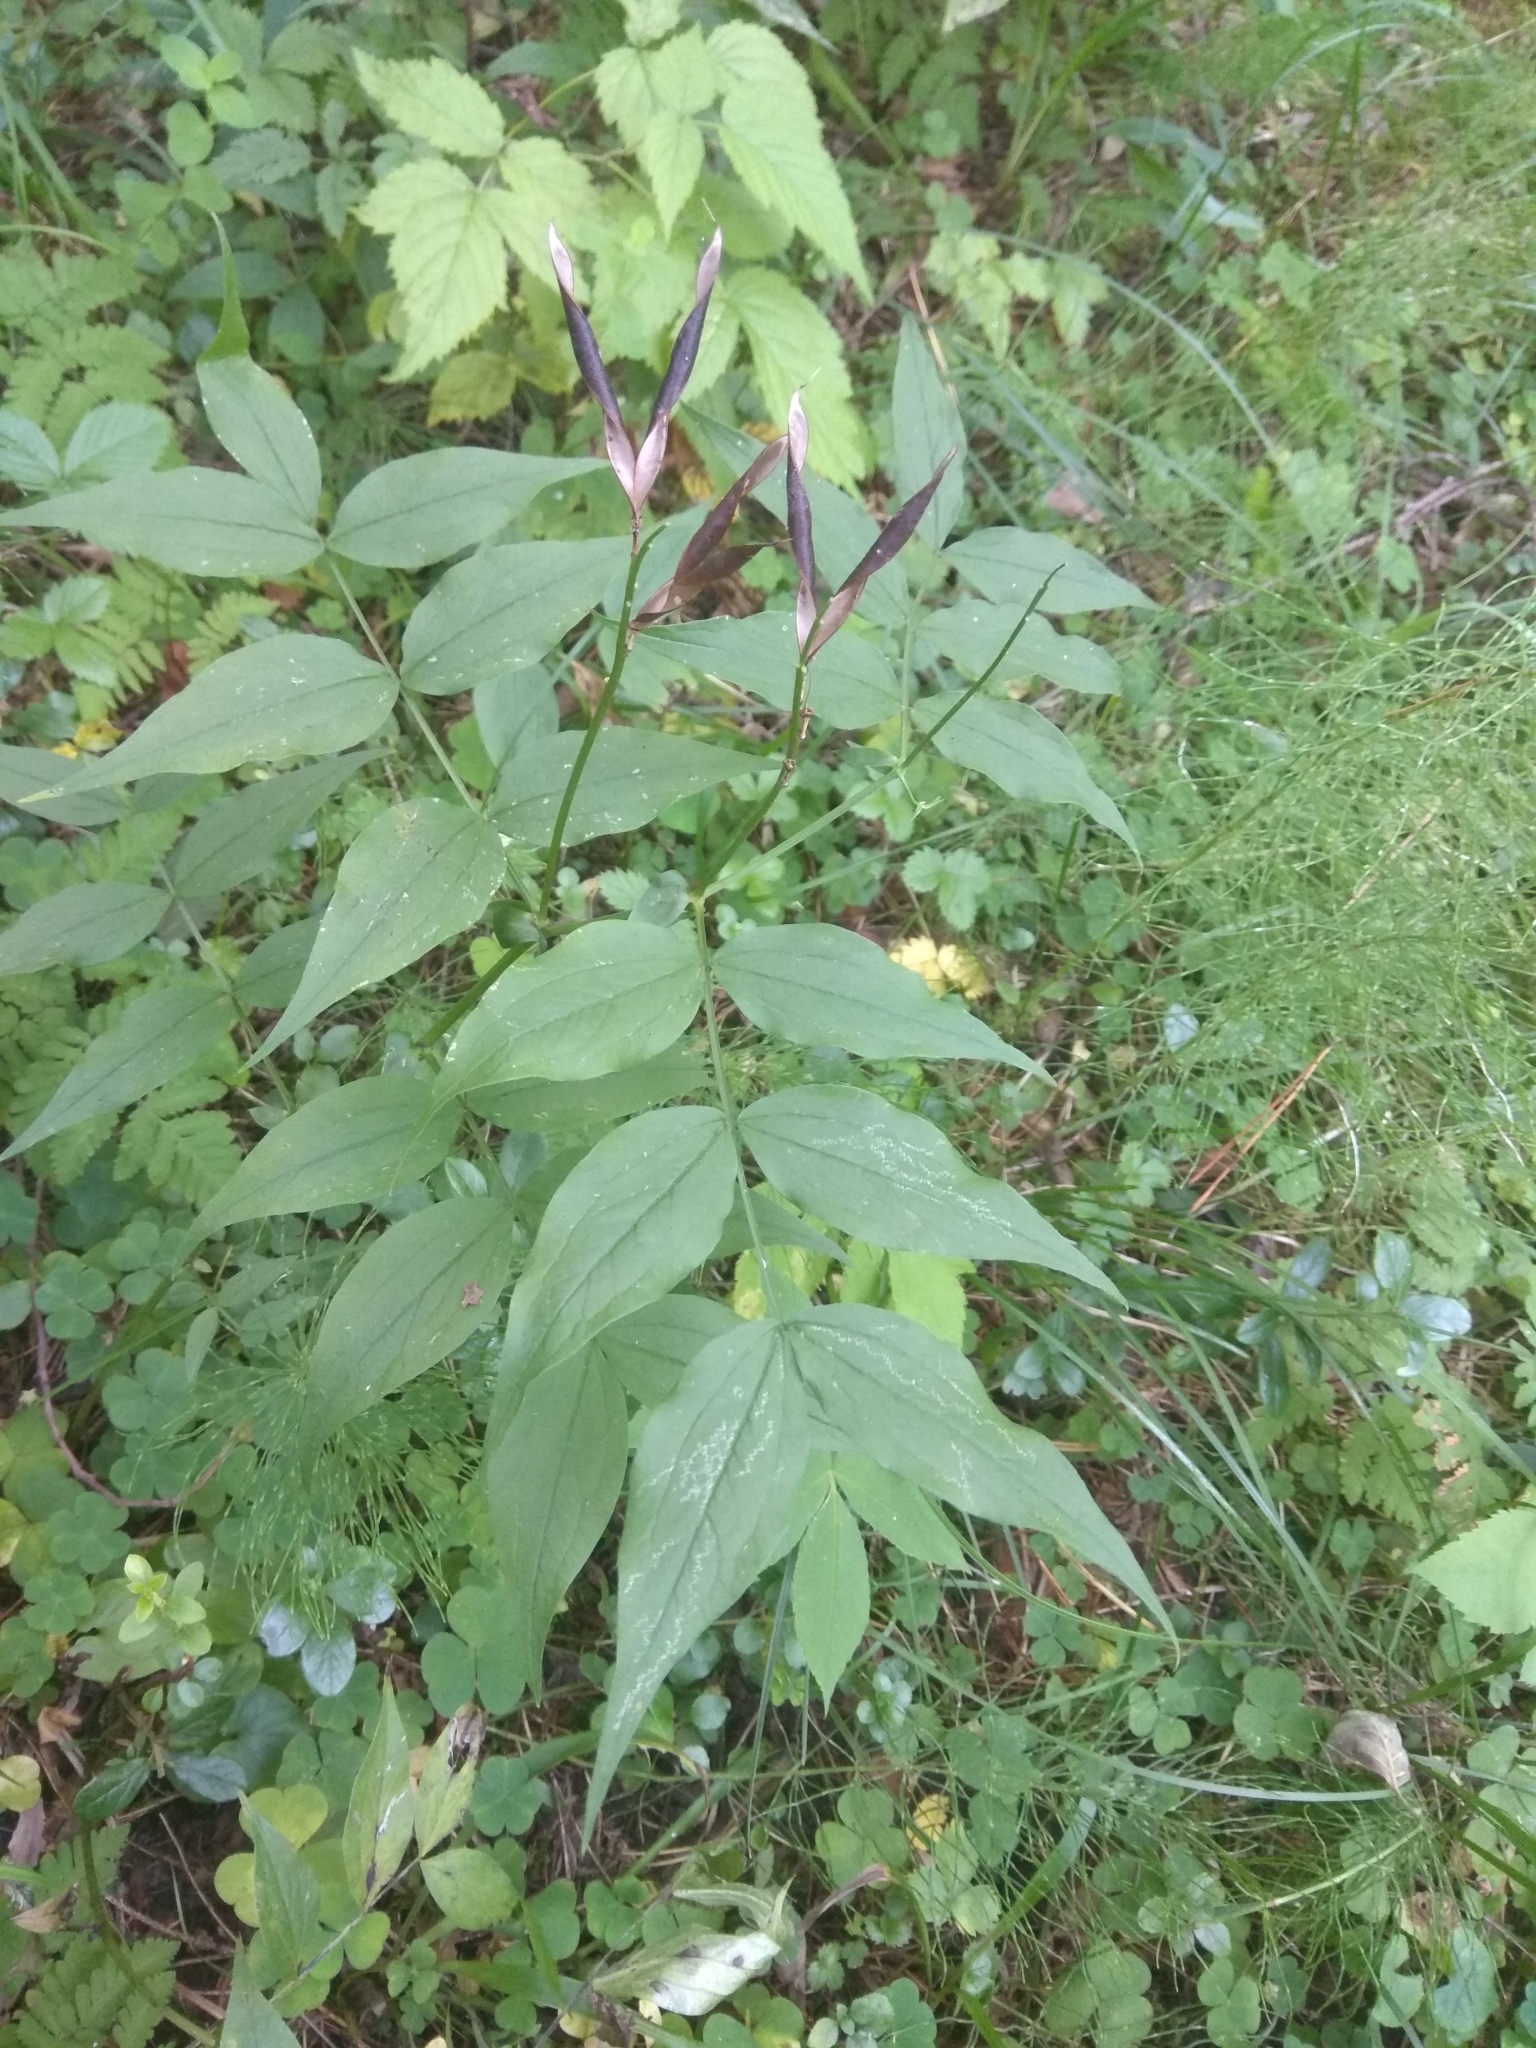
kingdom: Plantae
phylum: Tracheophyta
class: Magnoliopsida
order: Fabales
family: Fabaceae
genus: Lathyrus
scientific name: Lathyrus vernus
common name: Spring pea
